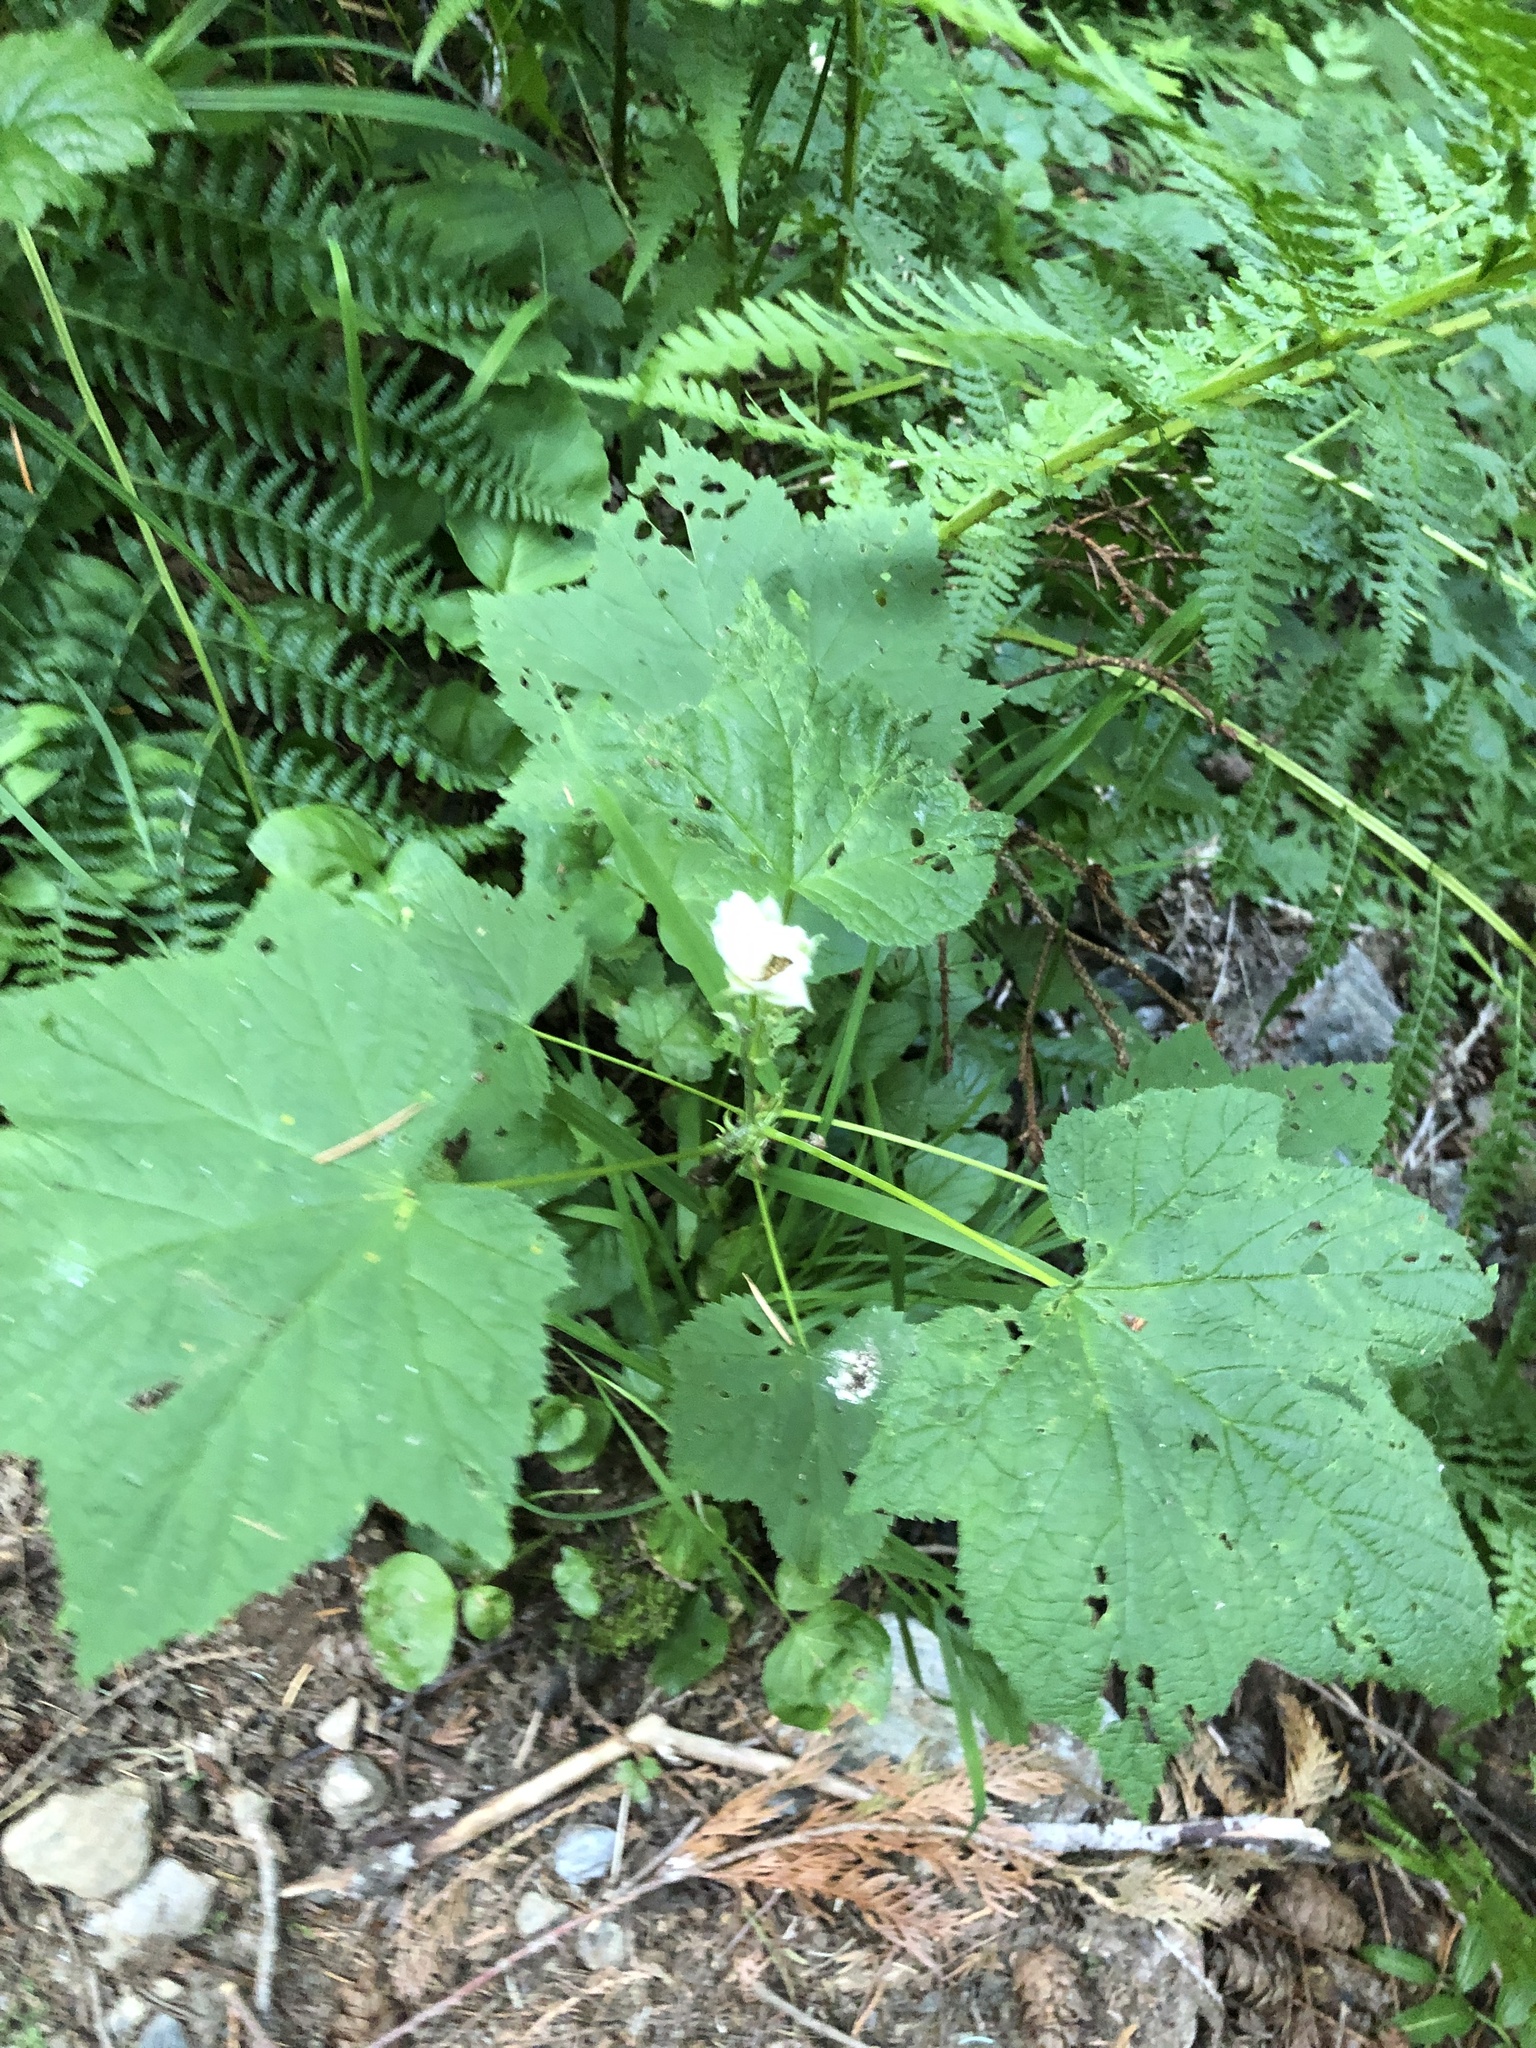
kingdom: Plantae
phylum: Tracheophyta
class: Magnoliopsida
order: Rosales
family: Rosaceae
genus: Rubus
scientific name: Rubus parviflorus
